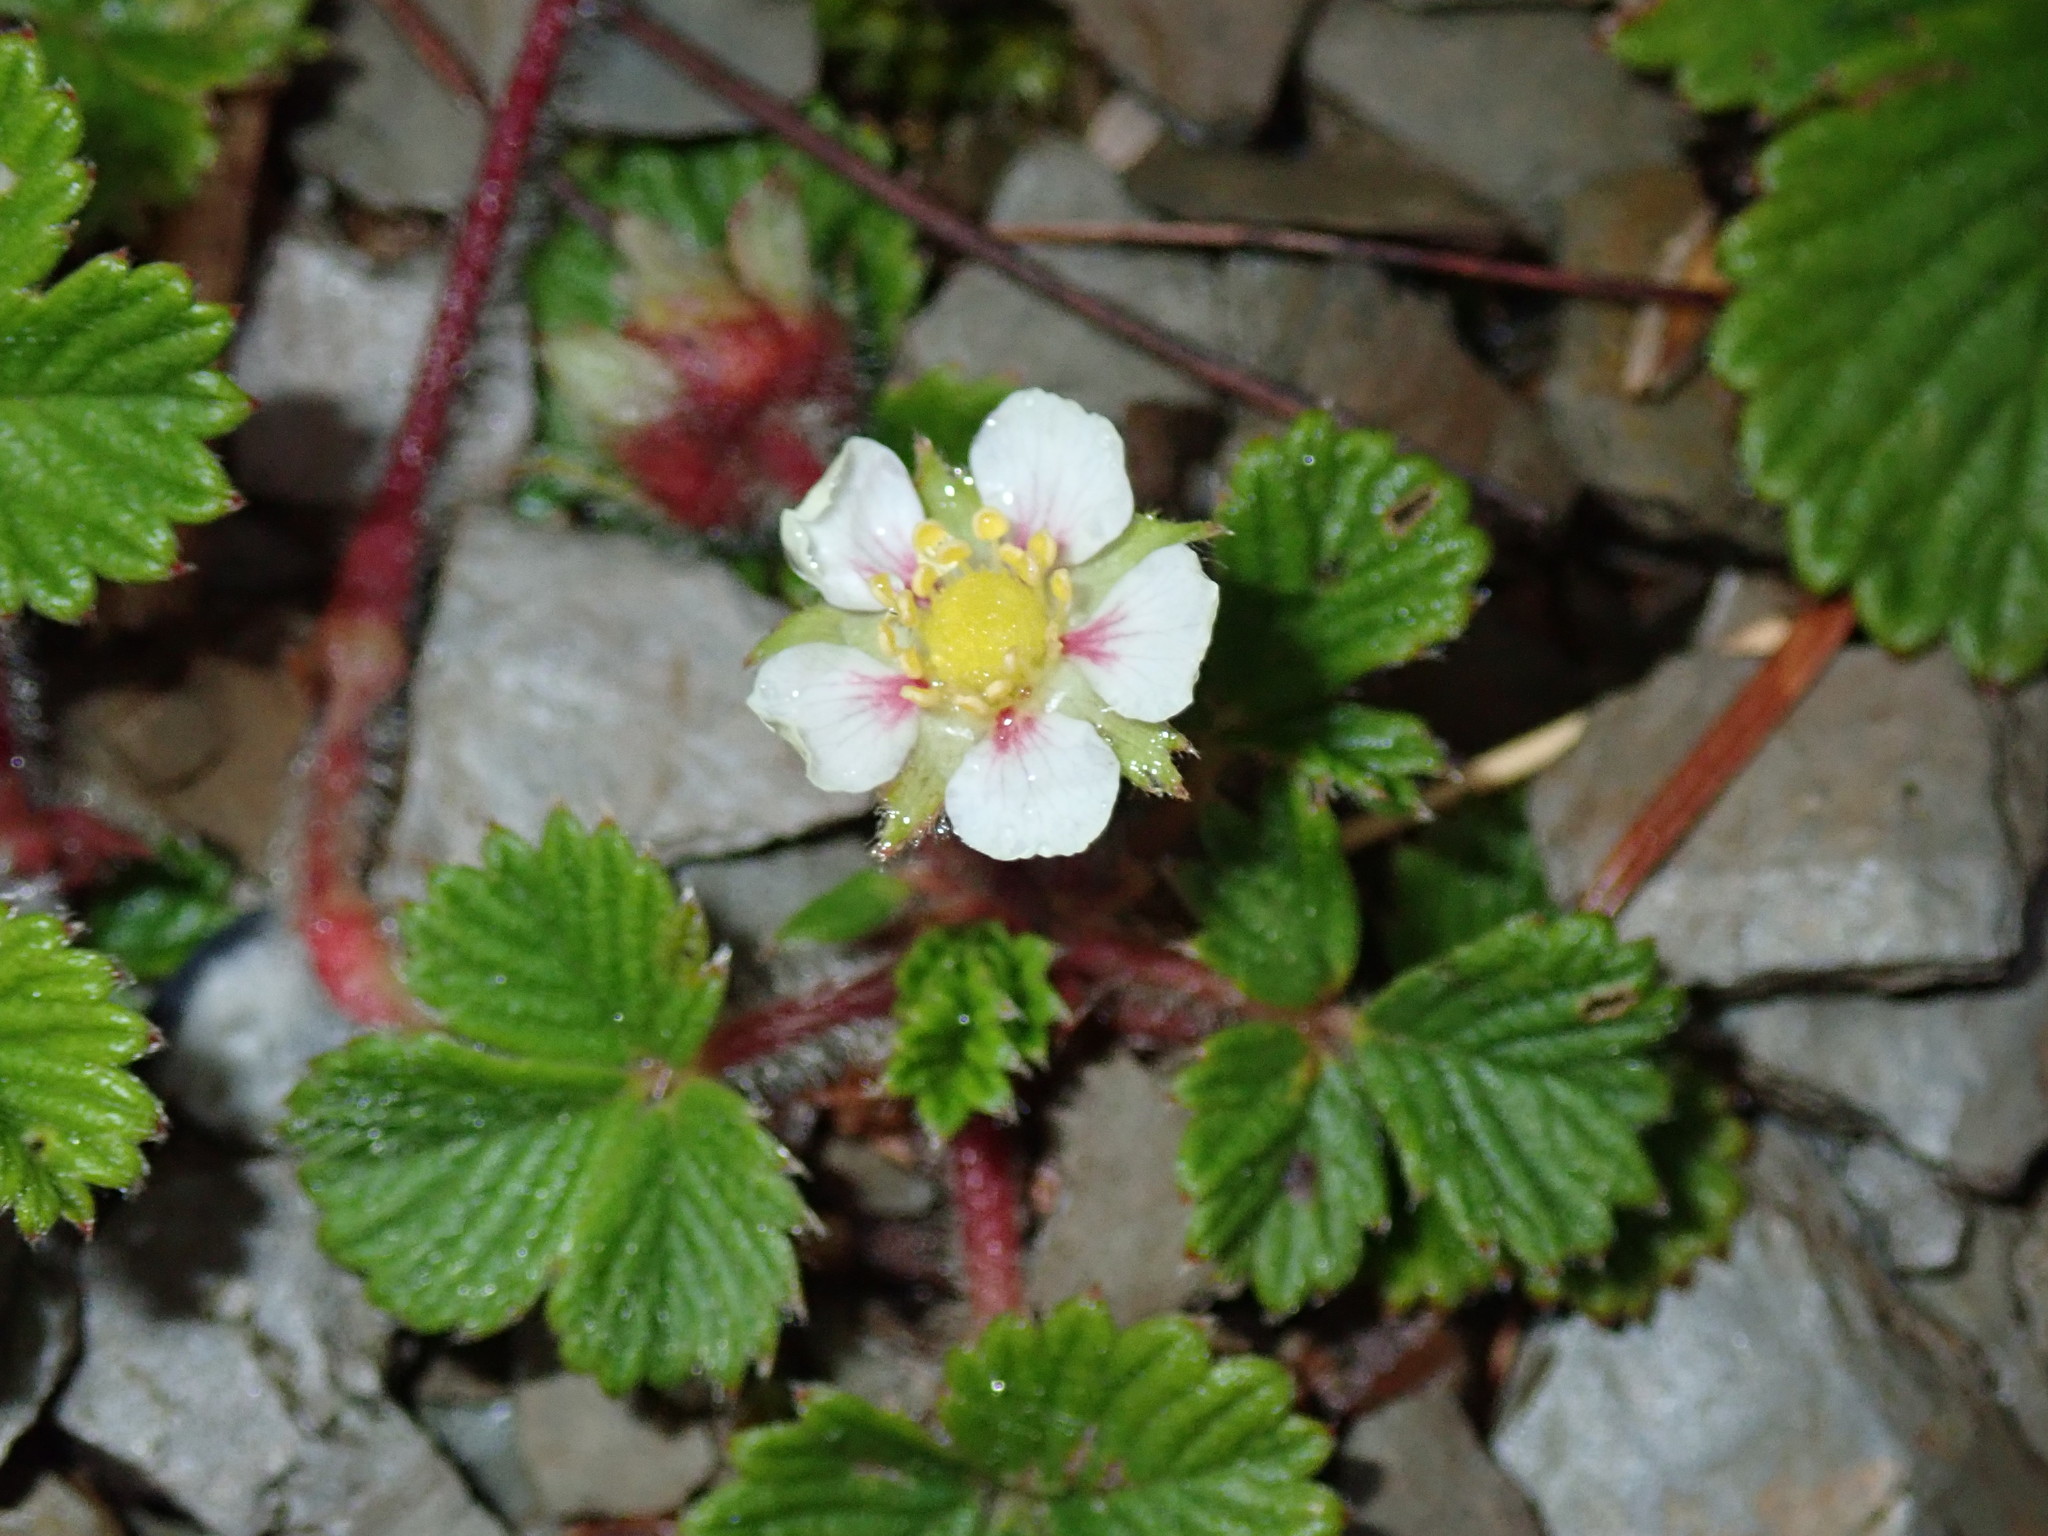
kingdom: Plantae
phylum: Tracheophyta
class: Magnoliopsida
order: Rosales
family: Rosaceae
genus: Fragaria
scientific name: Fragaria nilgerrensis
